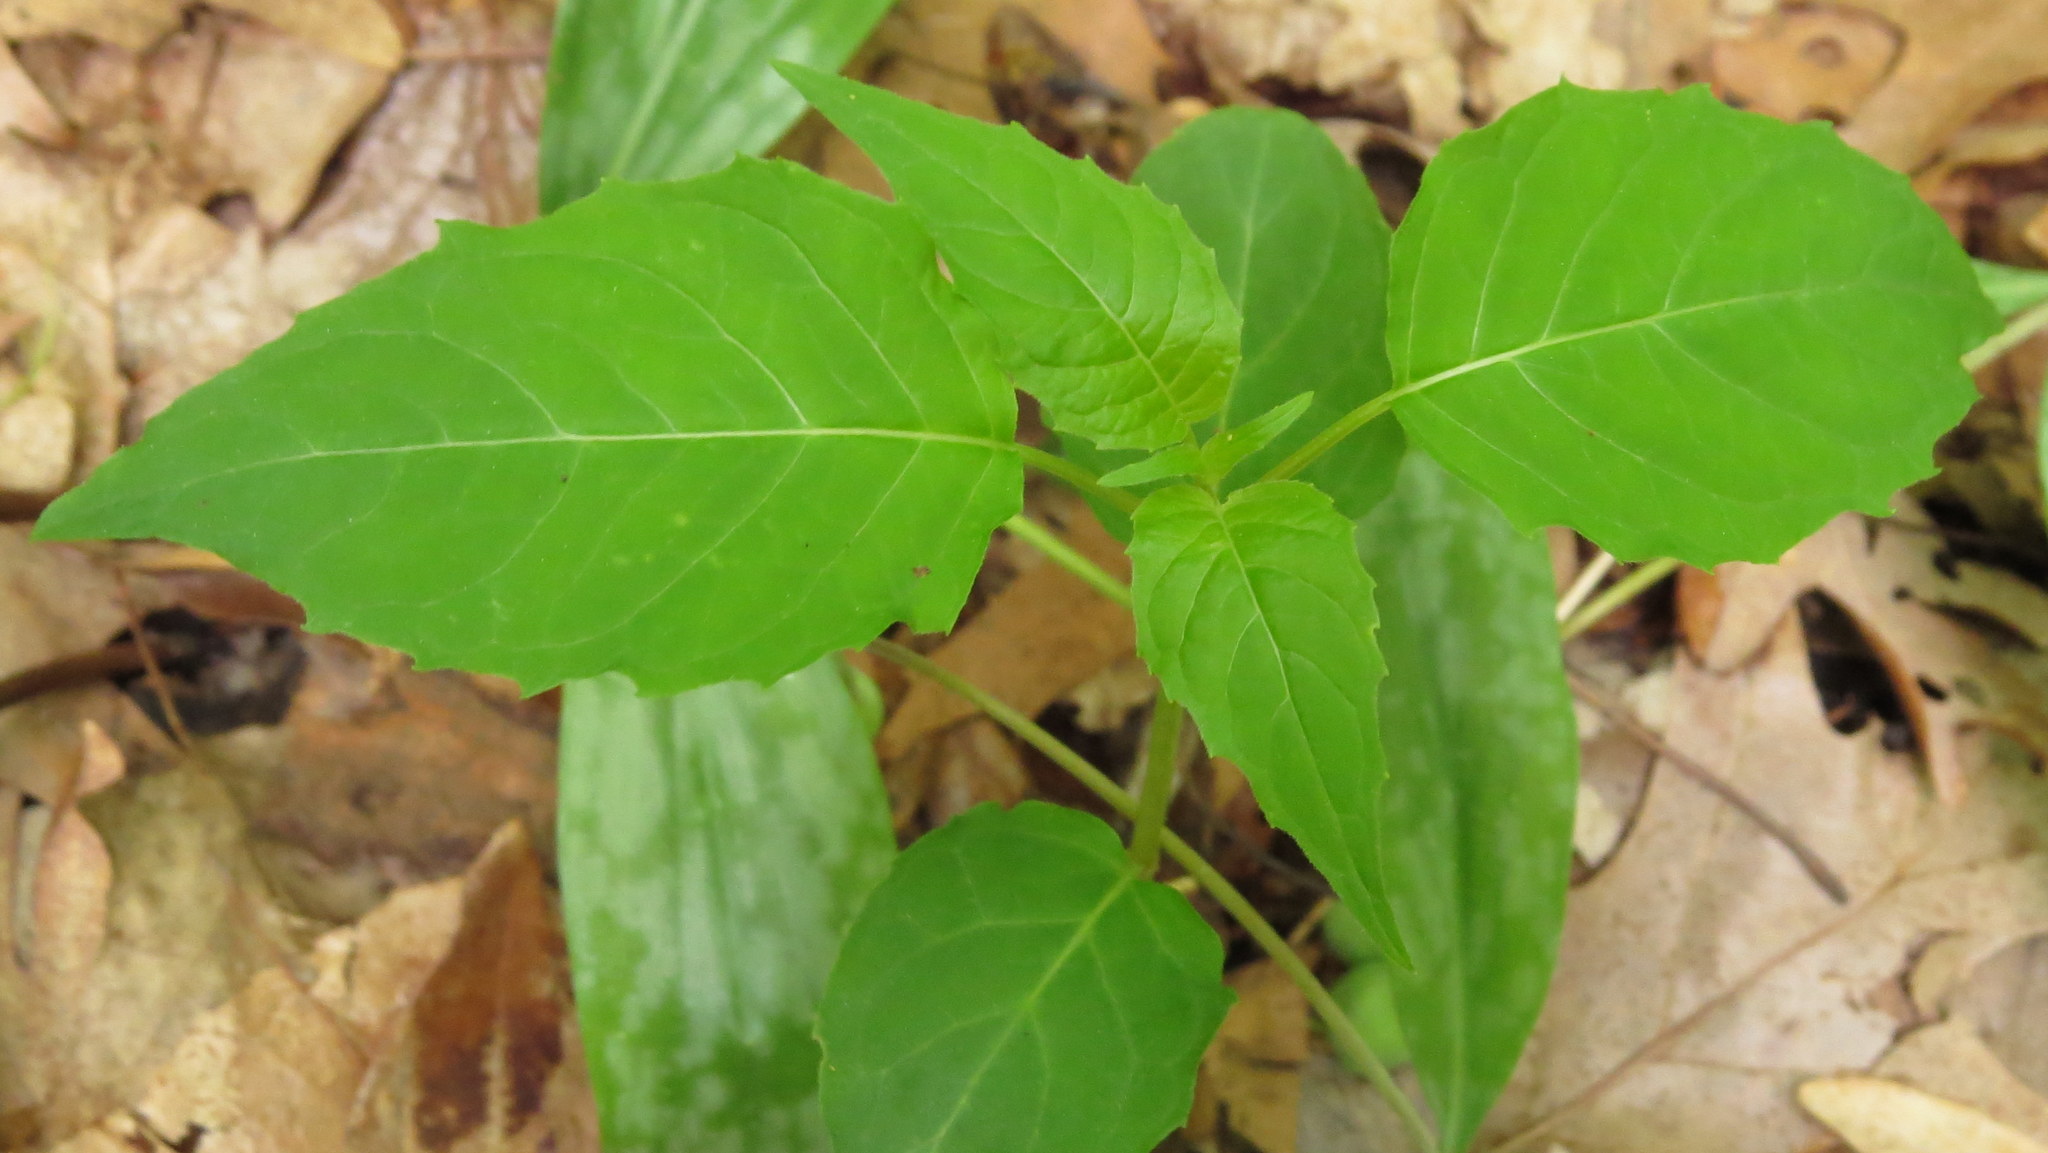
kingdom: Plantae
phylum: Tracheophyta
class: Magnoliopsida
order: Myrtales
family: Onagraceae
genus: Circaea
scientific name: Circaea
